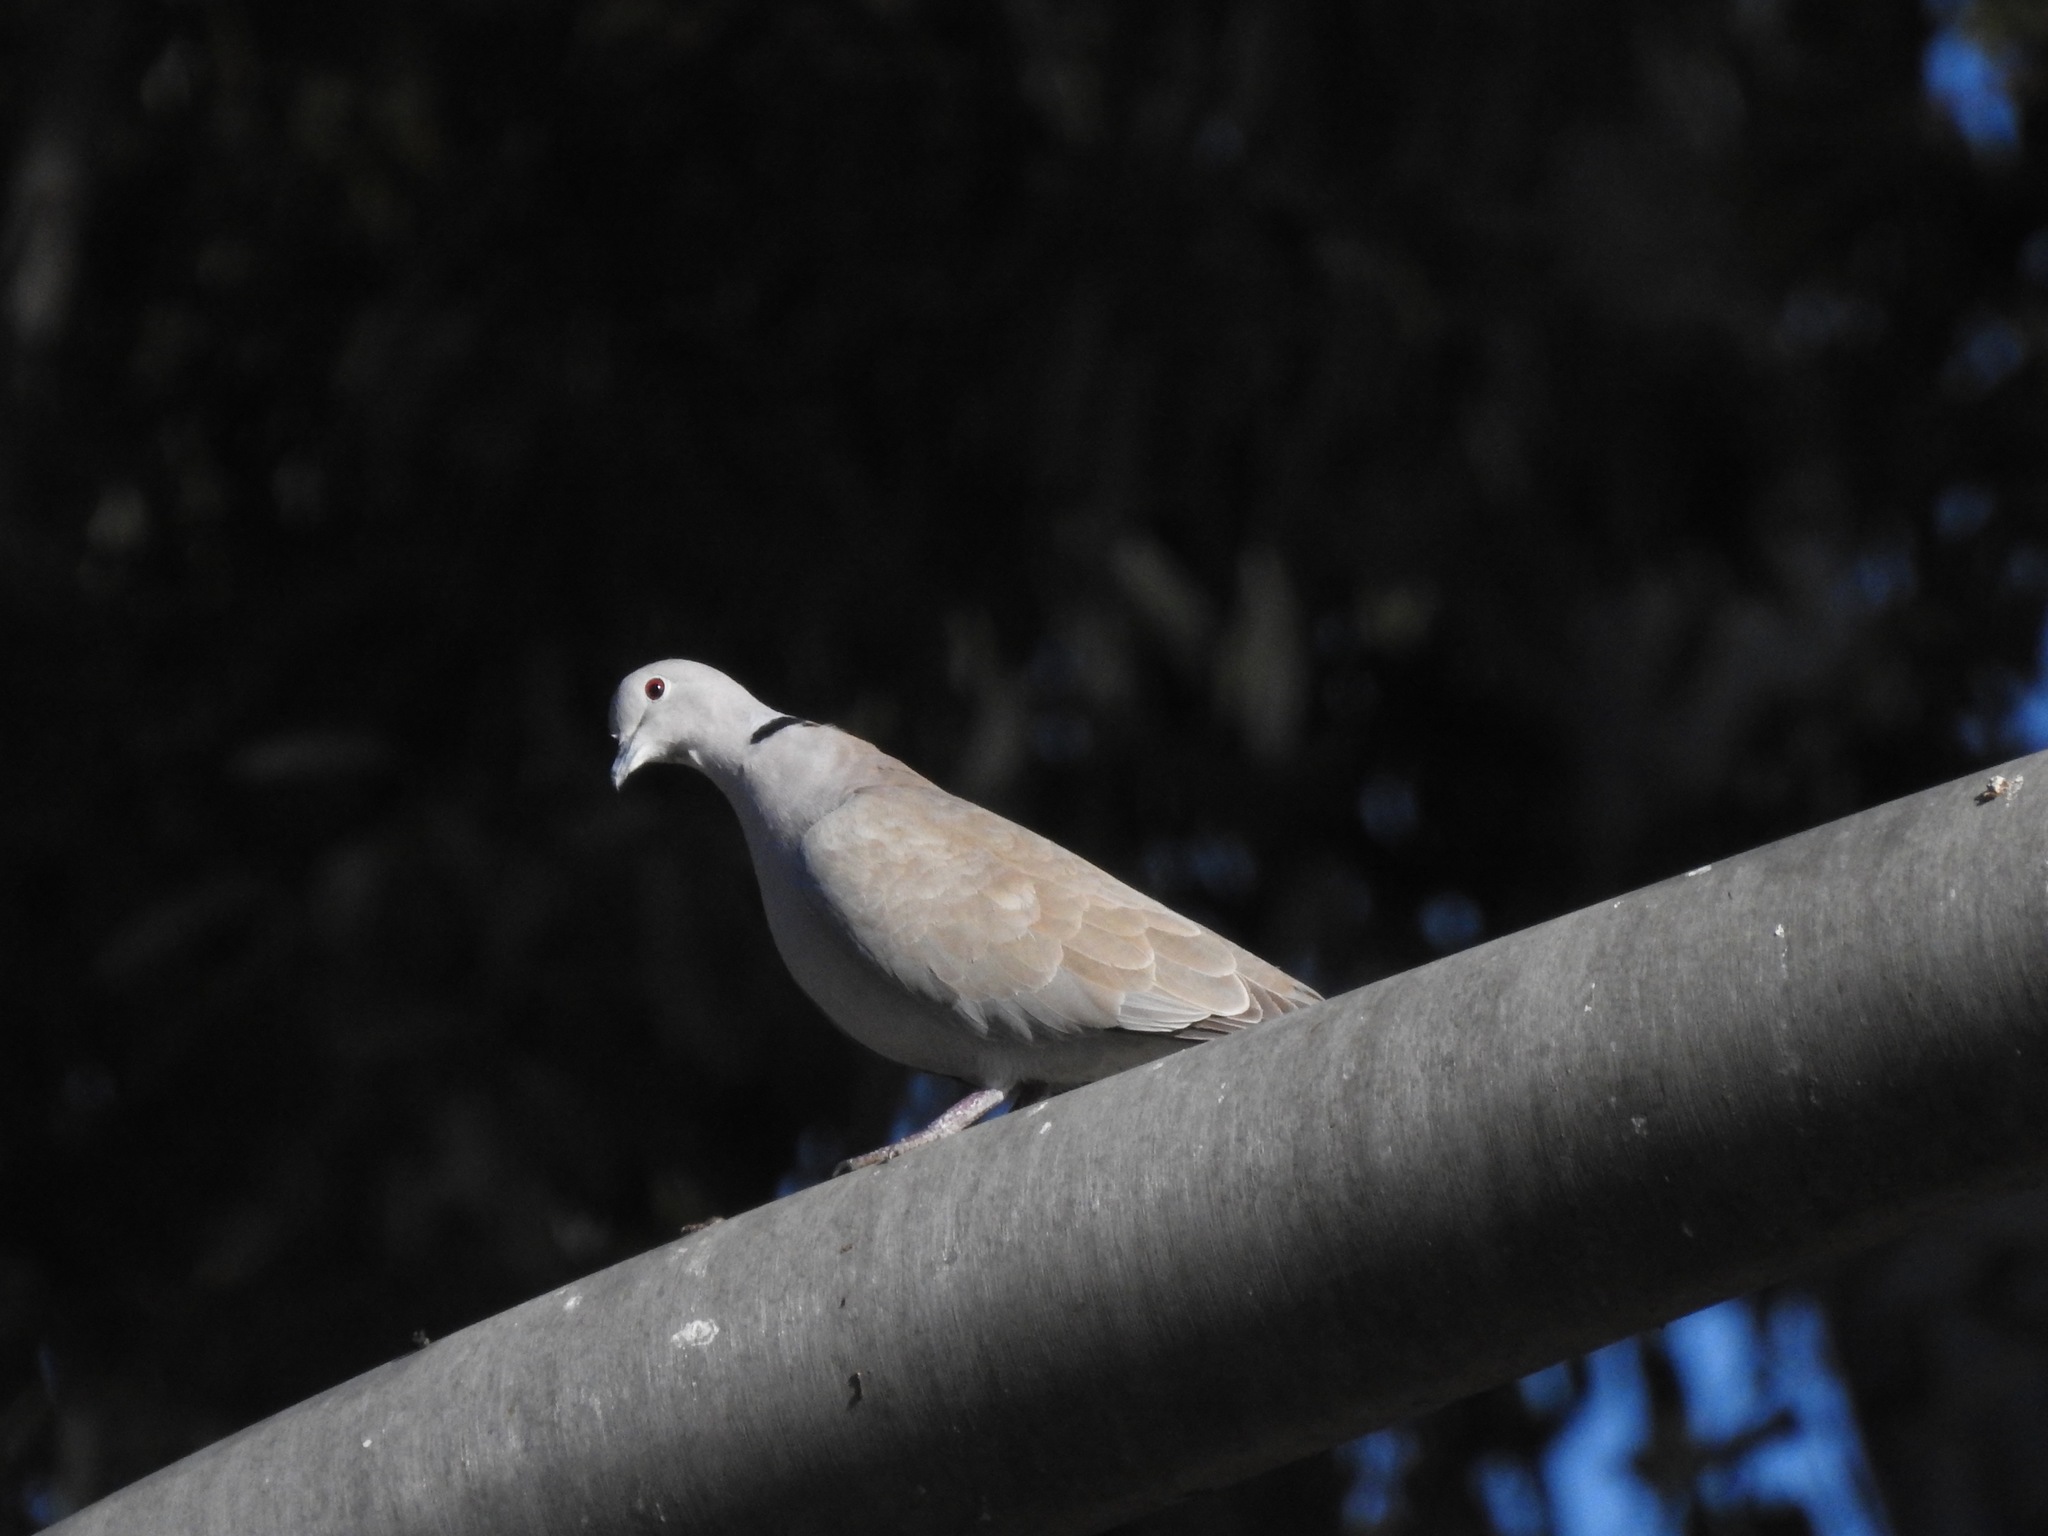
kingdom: Animalia
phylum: Chordata
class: Aves
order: Columbiformes
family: Columbidae
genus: Streptopelia
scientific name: Streptopelia decaocto
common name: Eurasian collared dove
